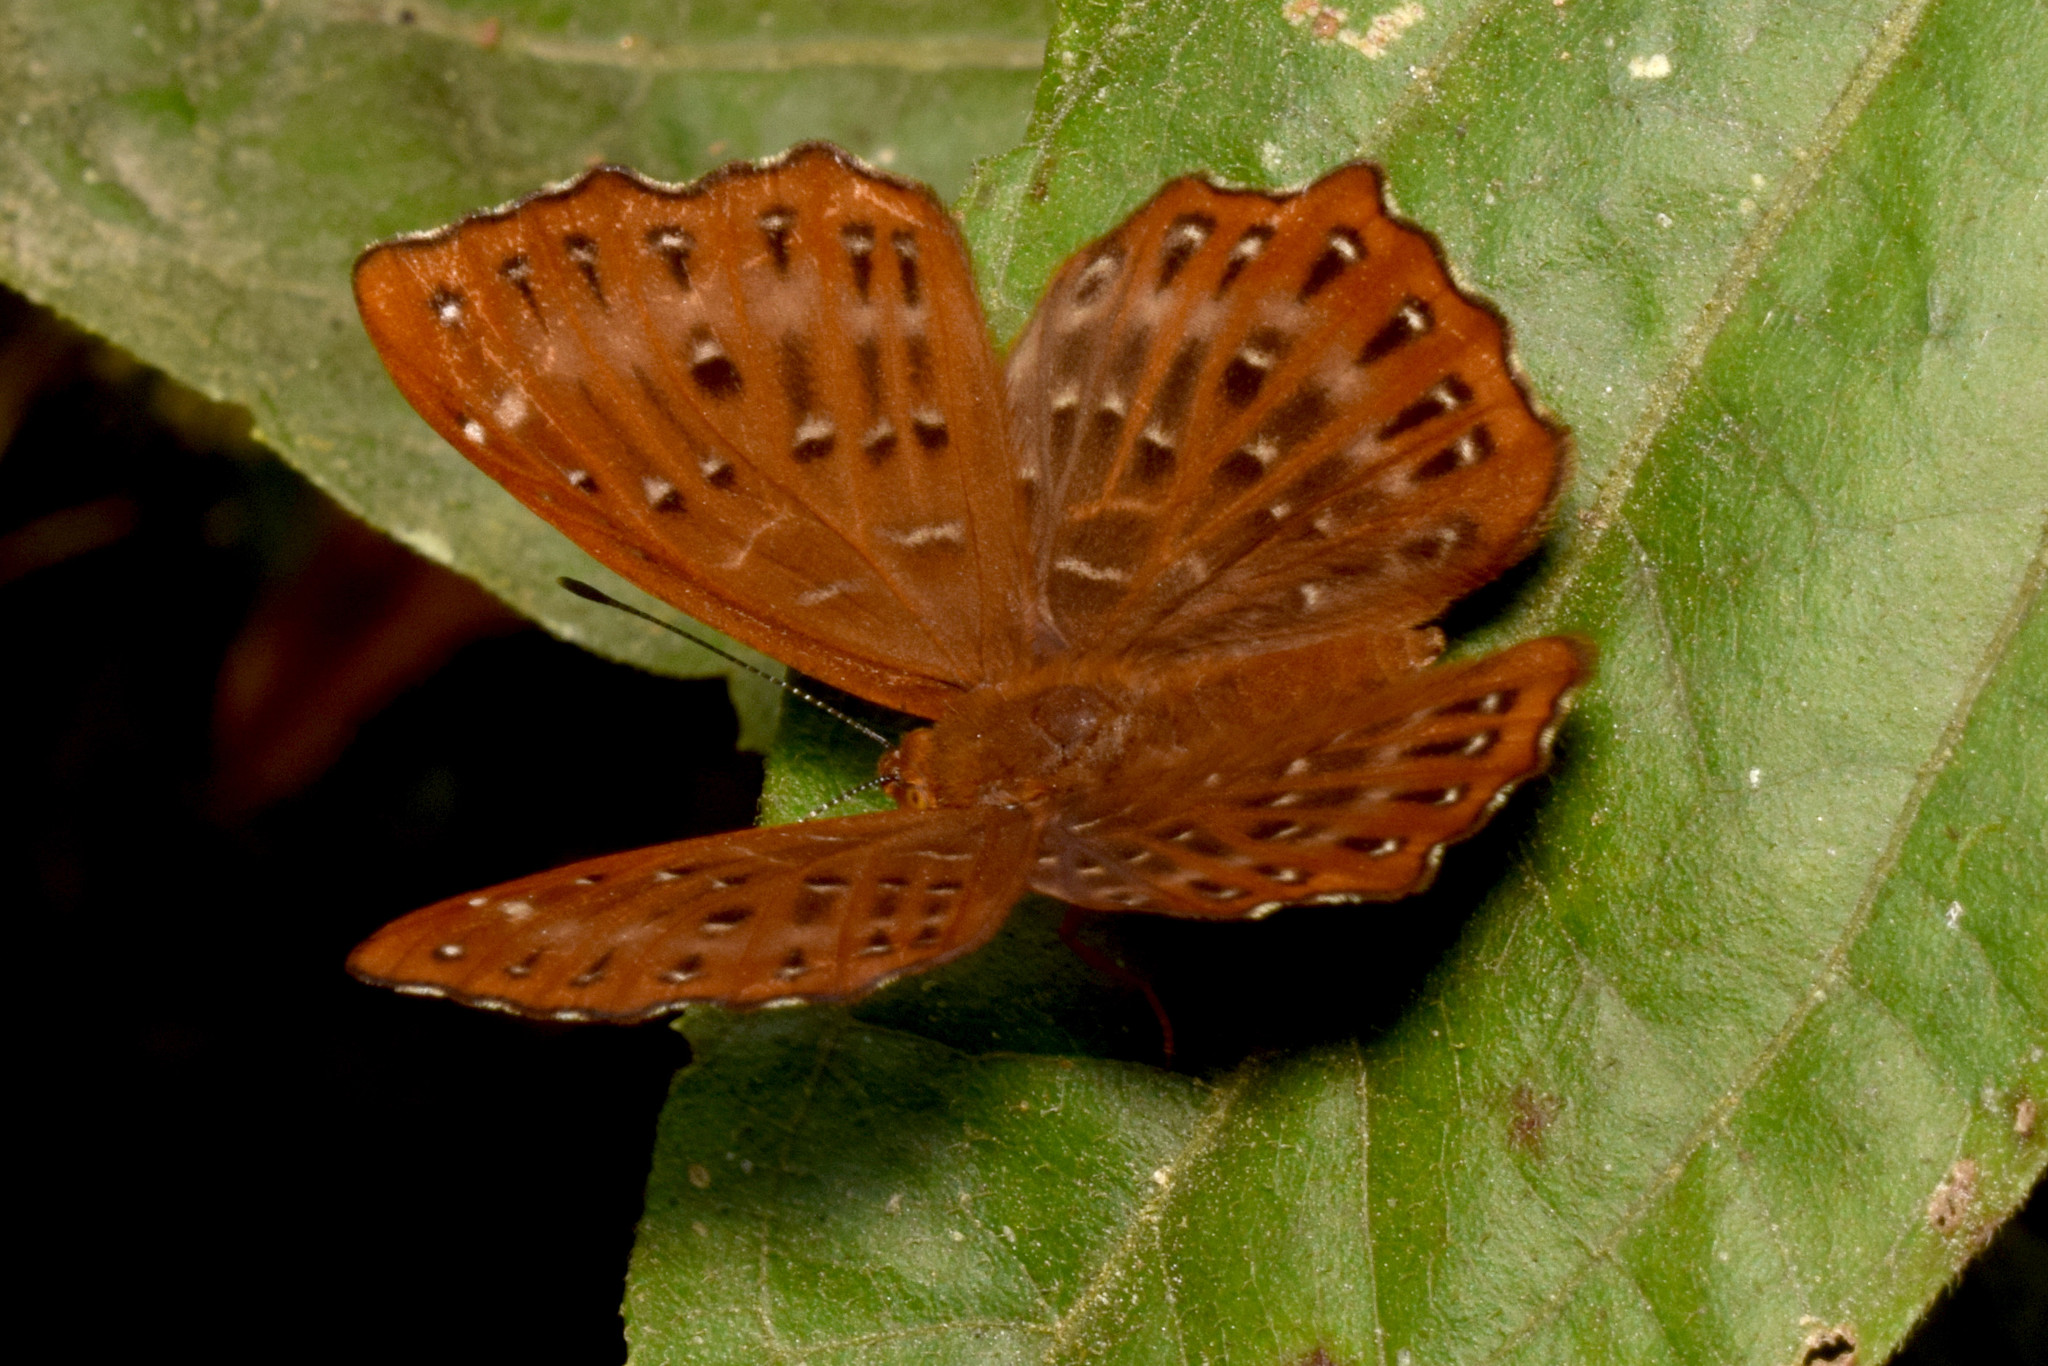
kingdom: Animalia
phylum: Arthropoda
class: Insecta
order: Lepidoptera
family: Riodinidae
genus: Zemeros
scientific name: Zemeros flegyas
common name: Punchinello
